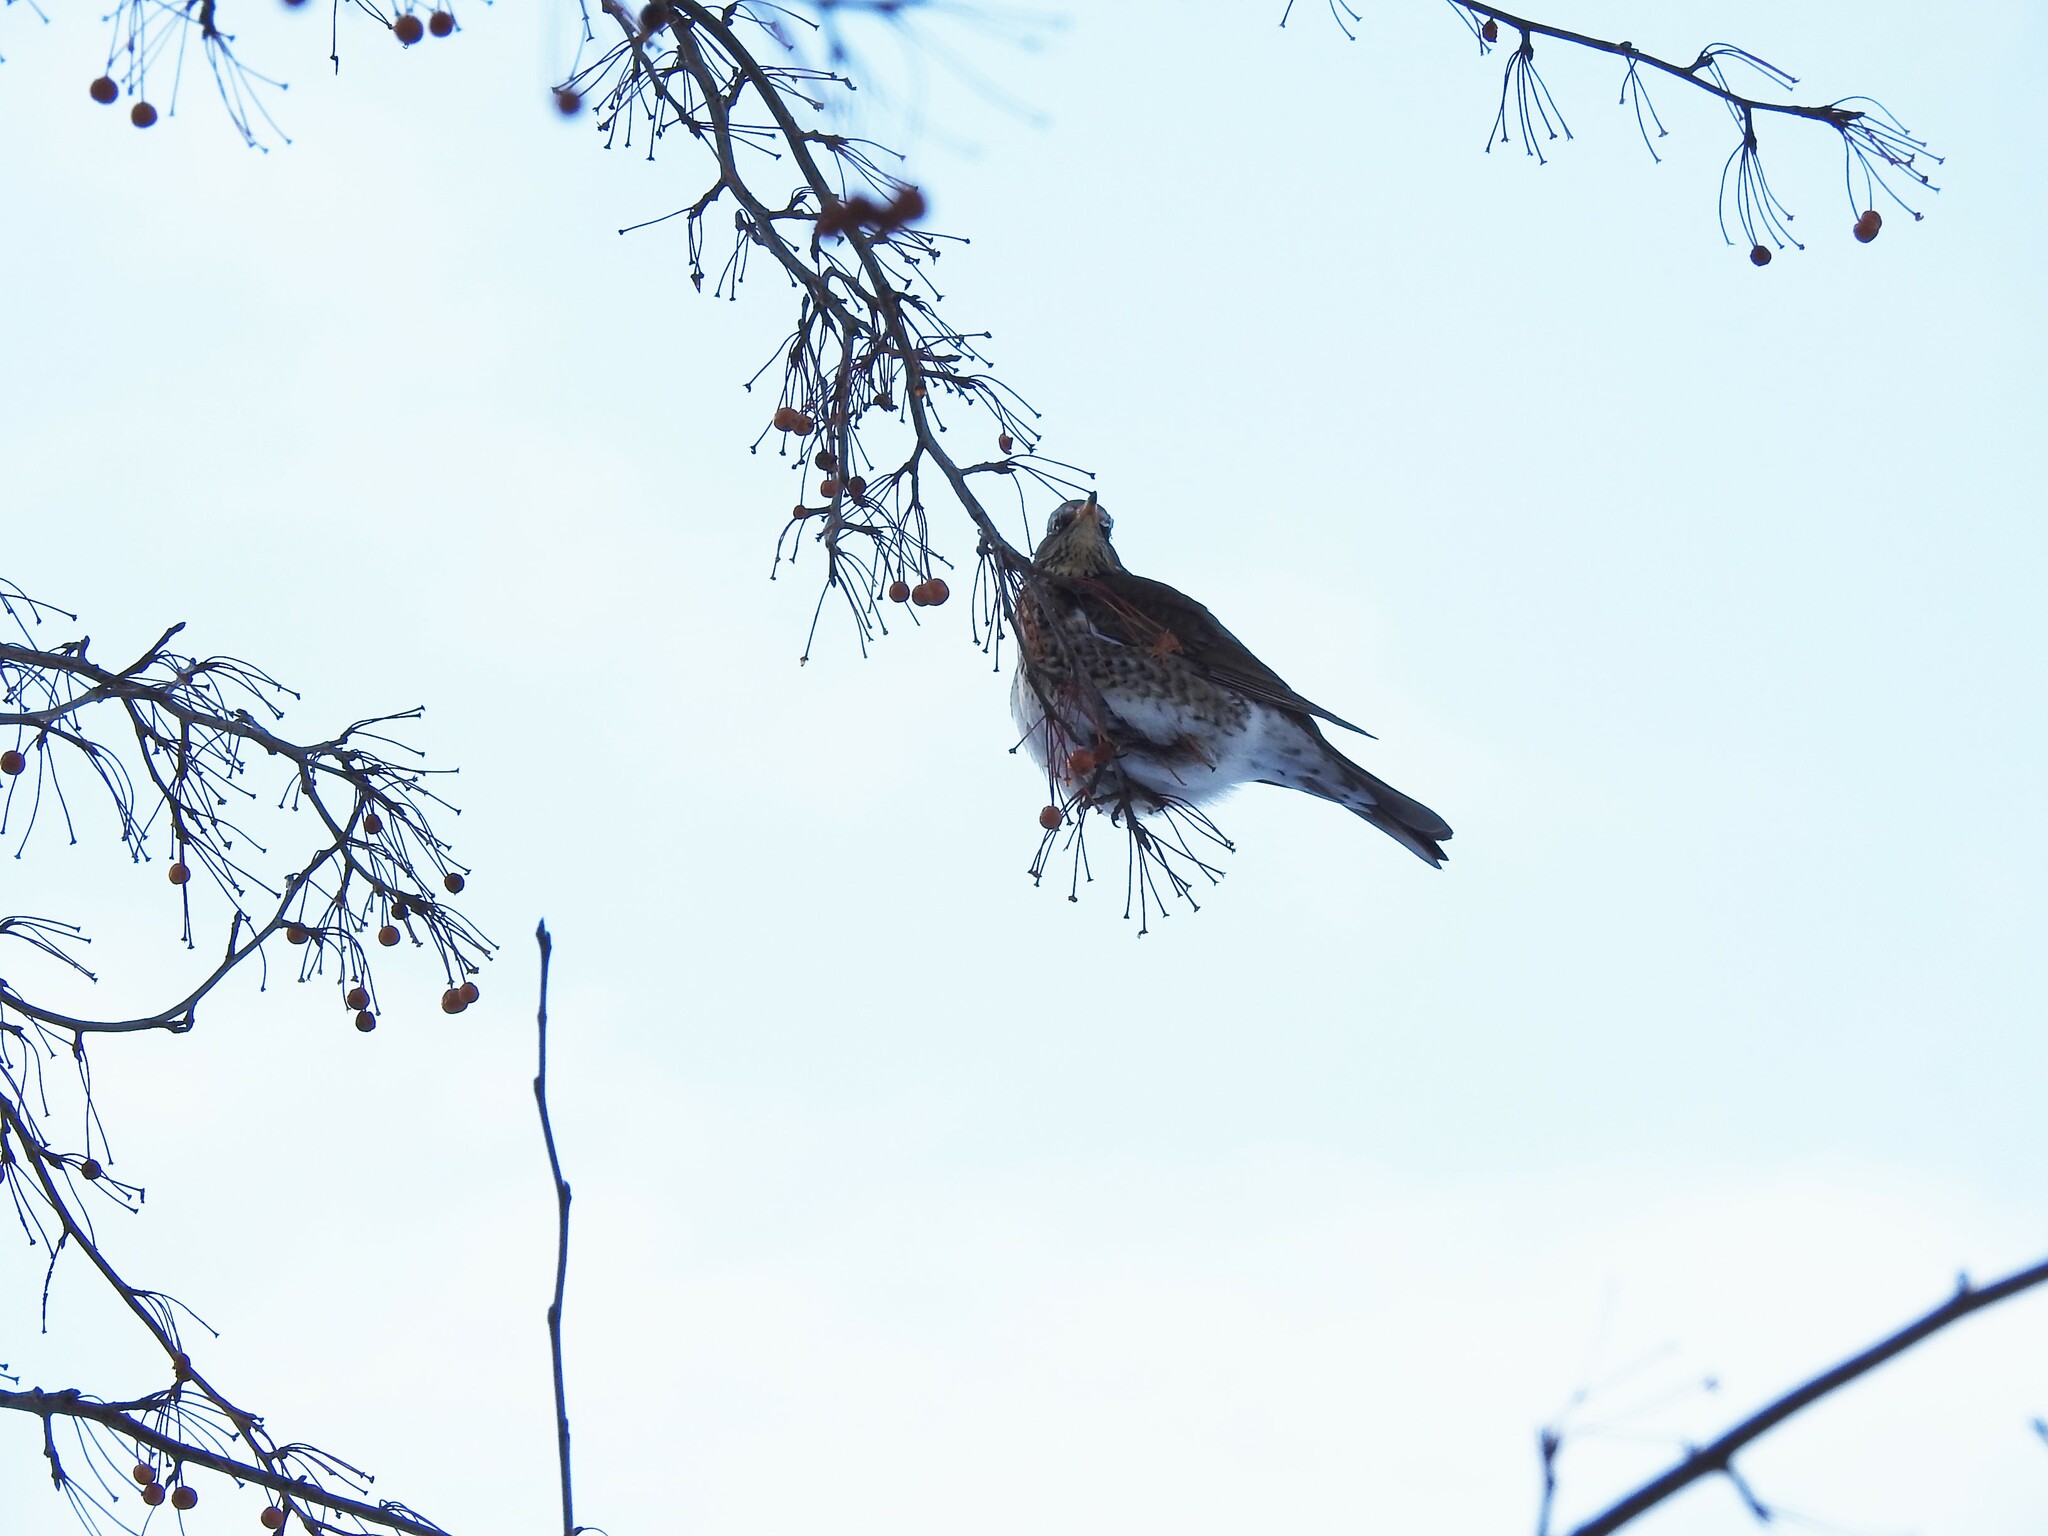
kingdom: Animalia
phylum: Chordata
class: Aves
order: Passeriformes
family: Turdidae
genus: Turdus
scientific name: Turdus pilaris
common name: Fieldfare
